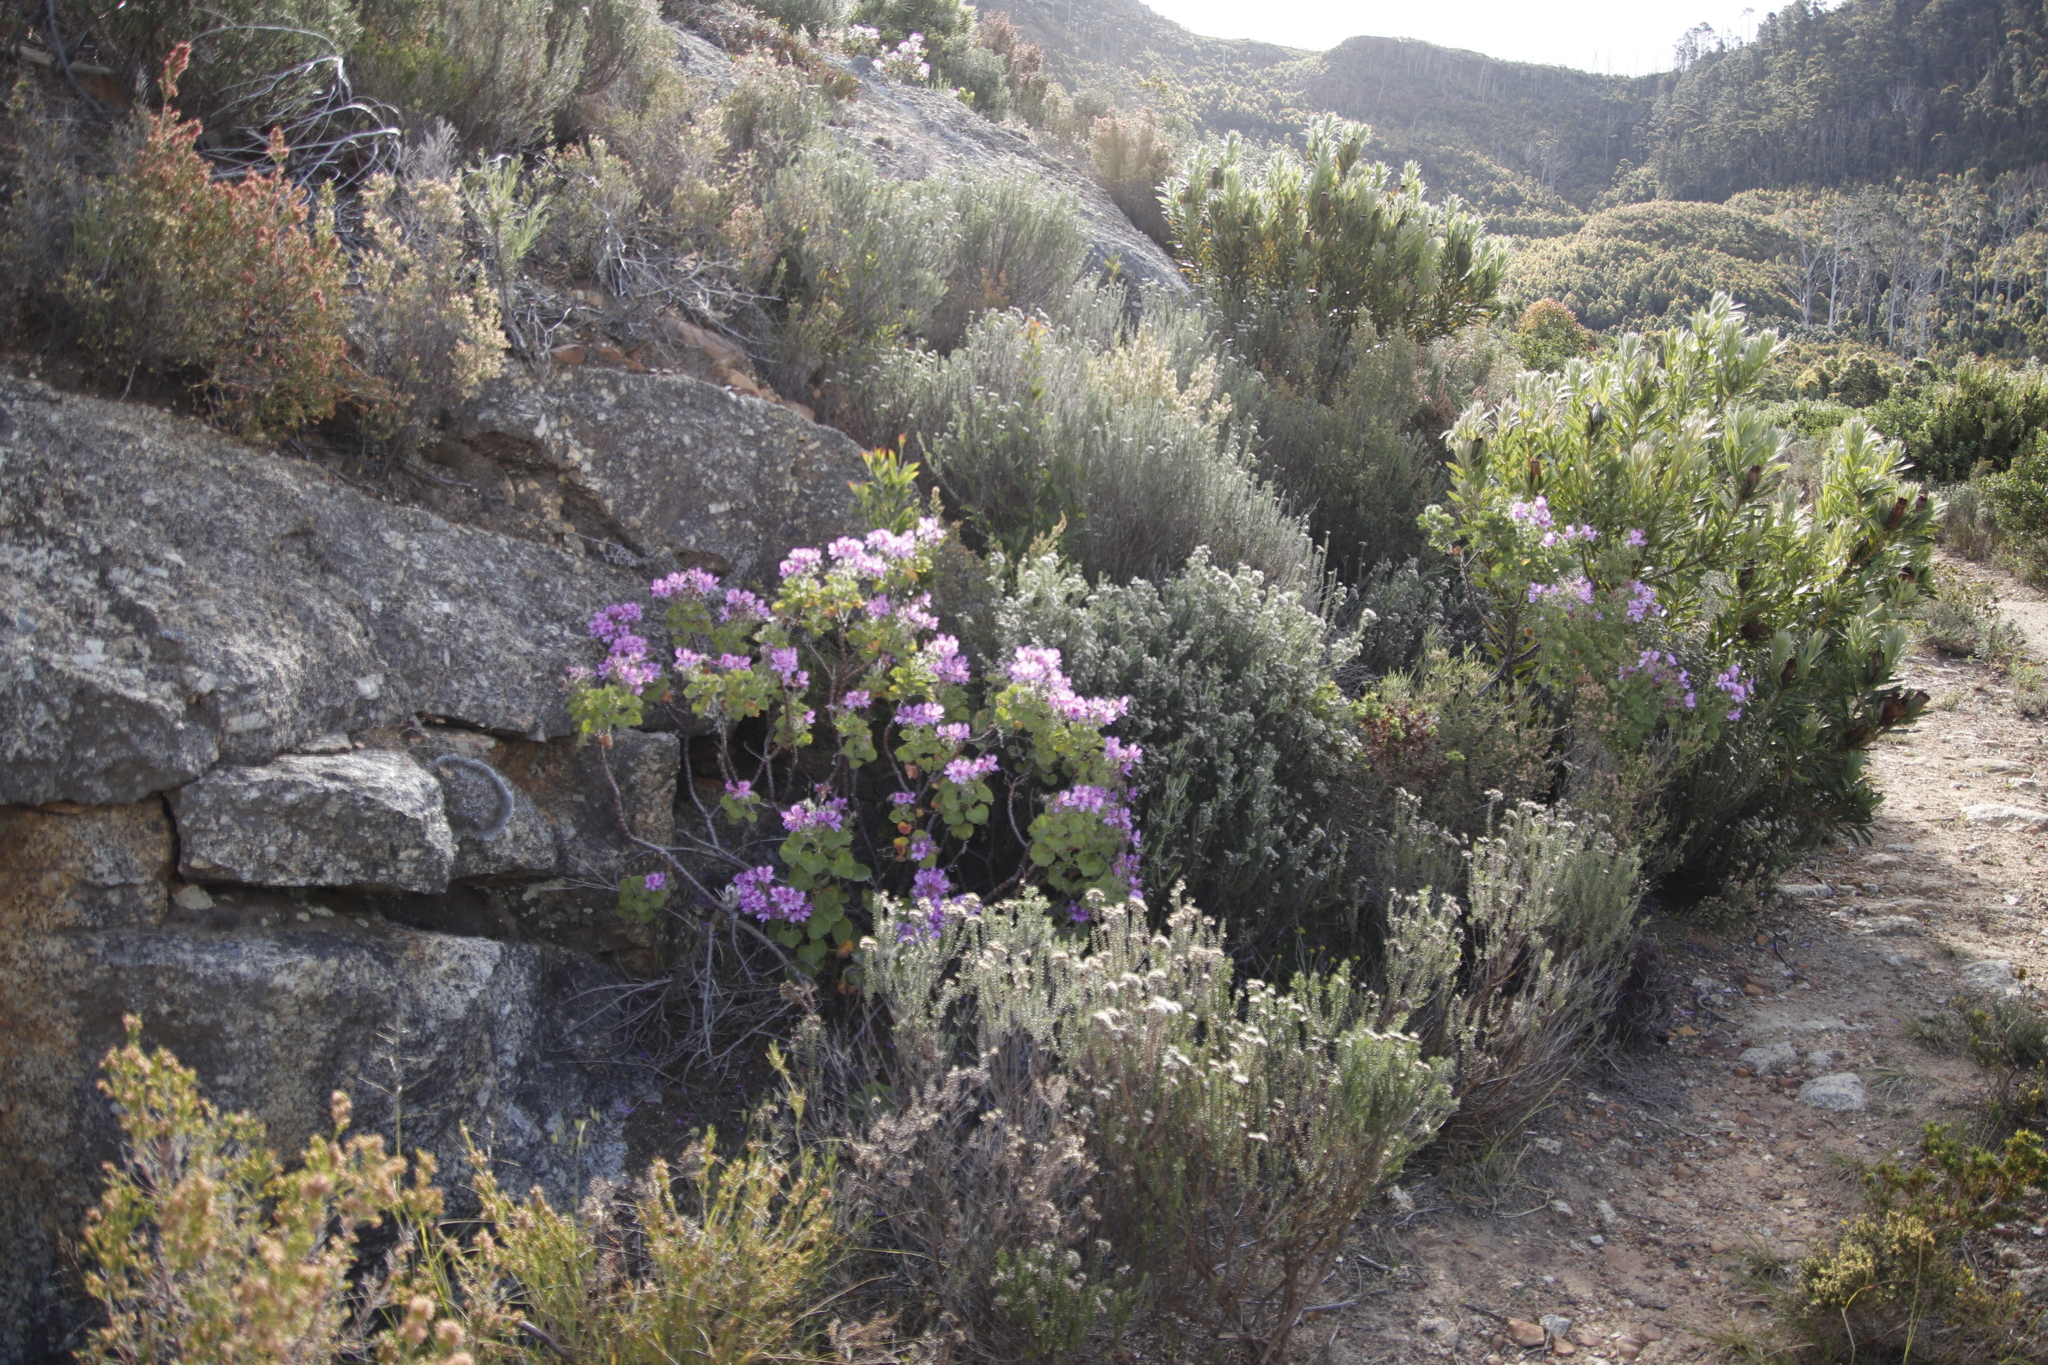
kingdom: Plantae
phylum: Tracheophyta
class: Magnoliopsida
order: Geraniales
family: Geraniaceae
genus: Pelargonium
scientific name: Pelargonium cucullatum
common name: Tree pelargonium
